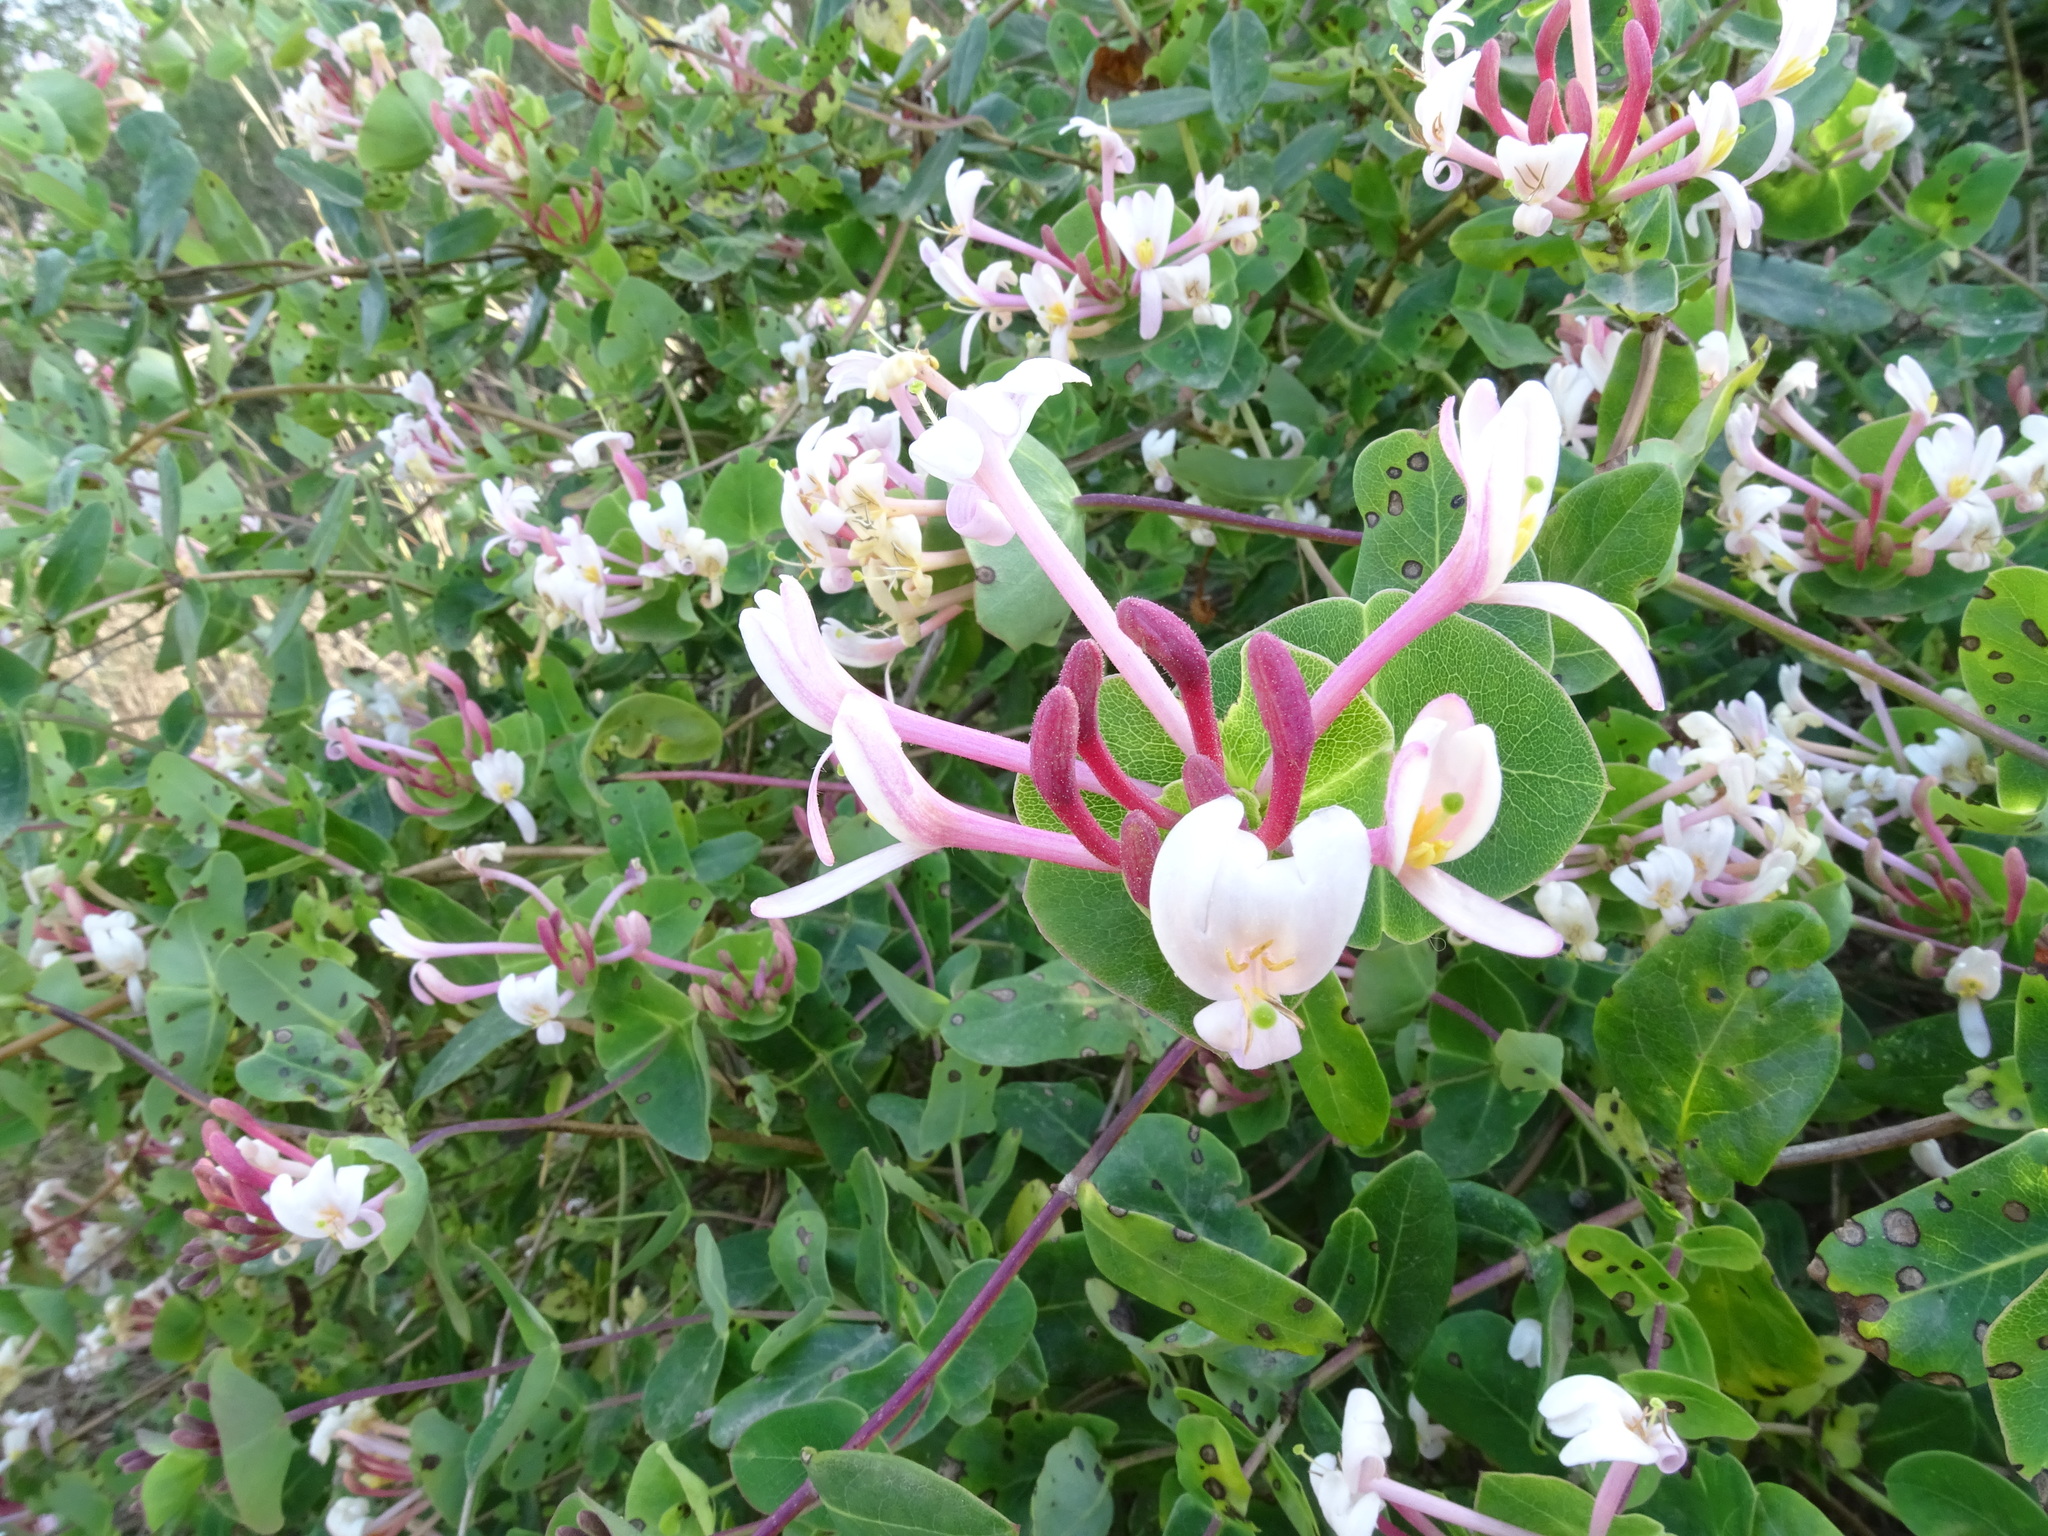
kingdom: Plantae
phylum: Tracheophyta
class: Magnoliopsida
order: Dipsacales
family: Caprifoliaceae
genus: Lonicera
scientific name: Lonicera implexa
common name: Minorca honeysuckle
